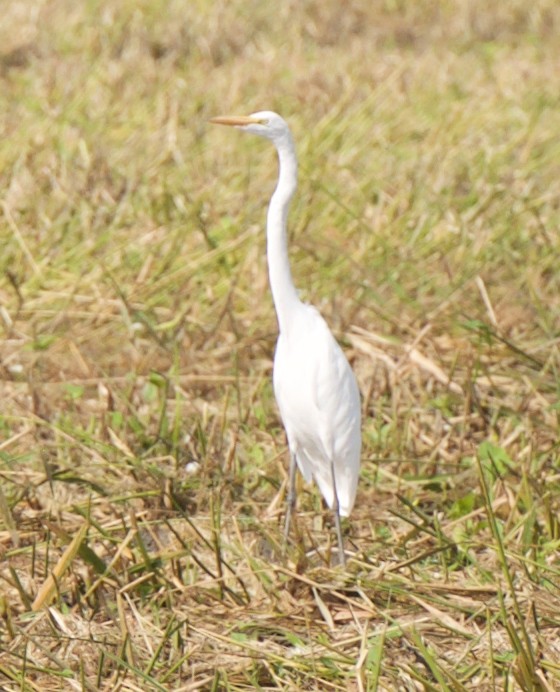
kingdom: Animalia
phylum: Chordata
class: Aves
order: Pelecaniformes
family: Ardeidae
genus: Ardea
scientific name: Ardea alba
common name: Great egret
